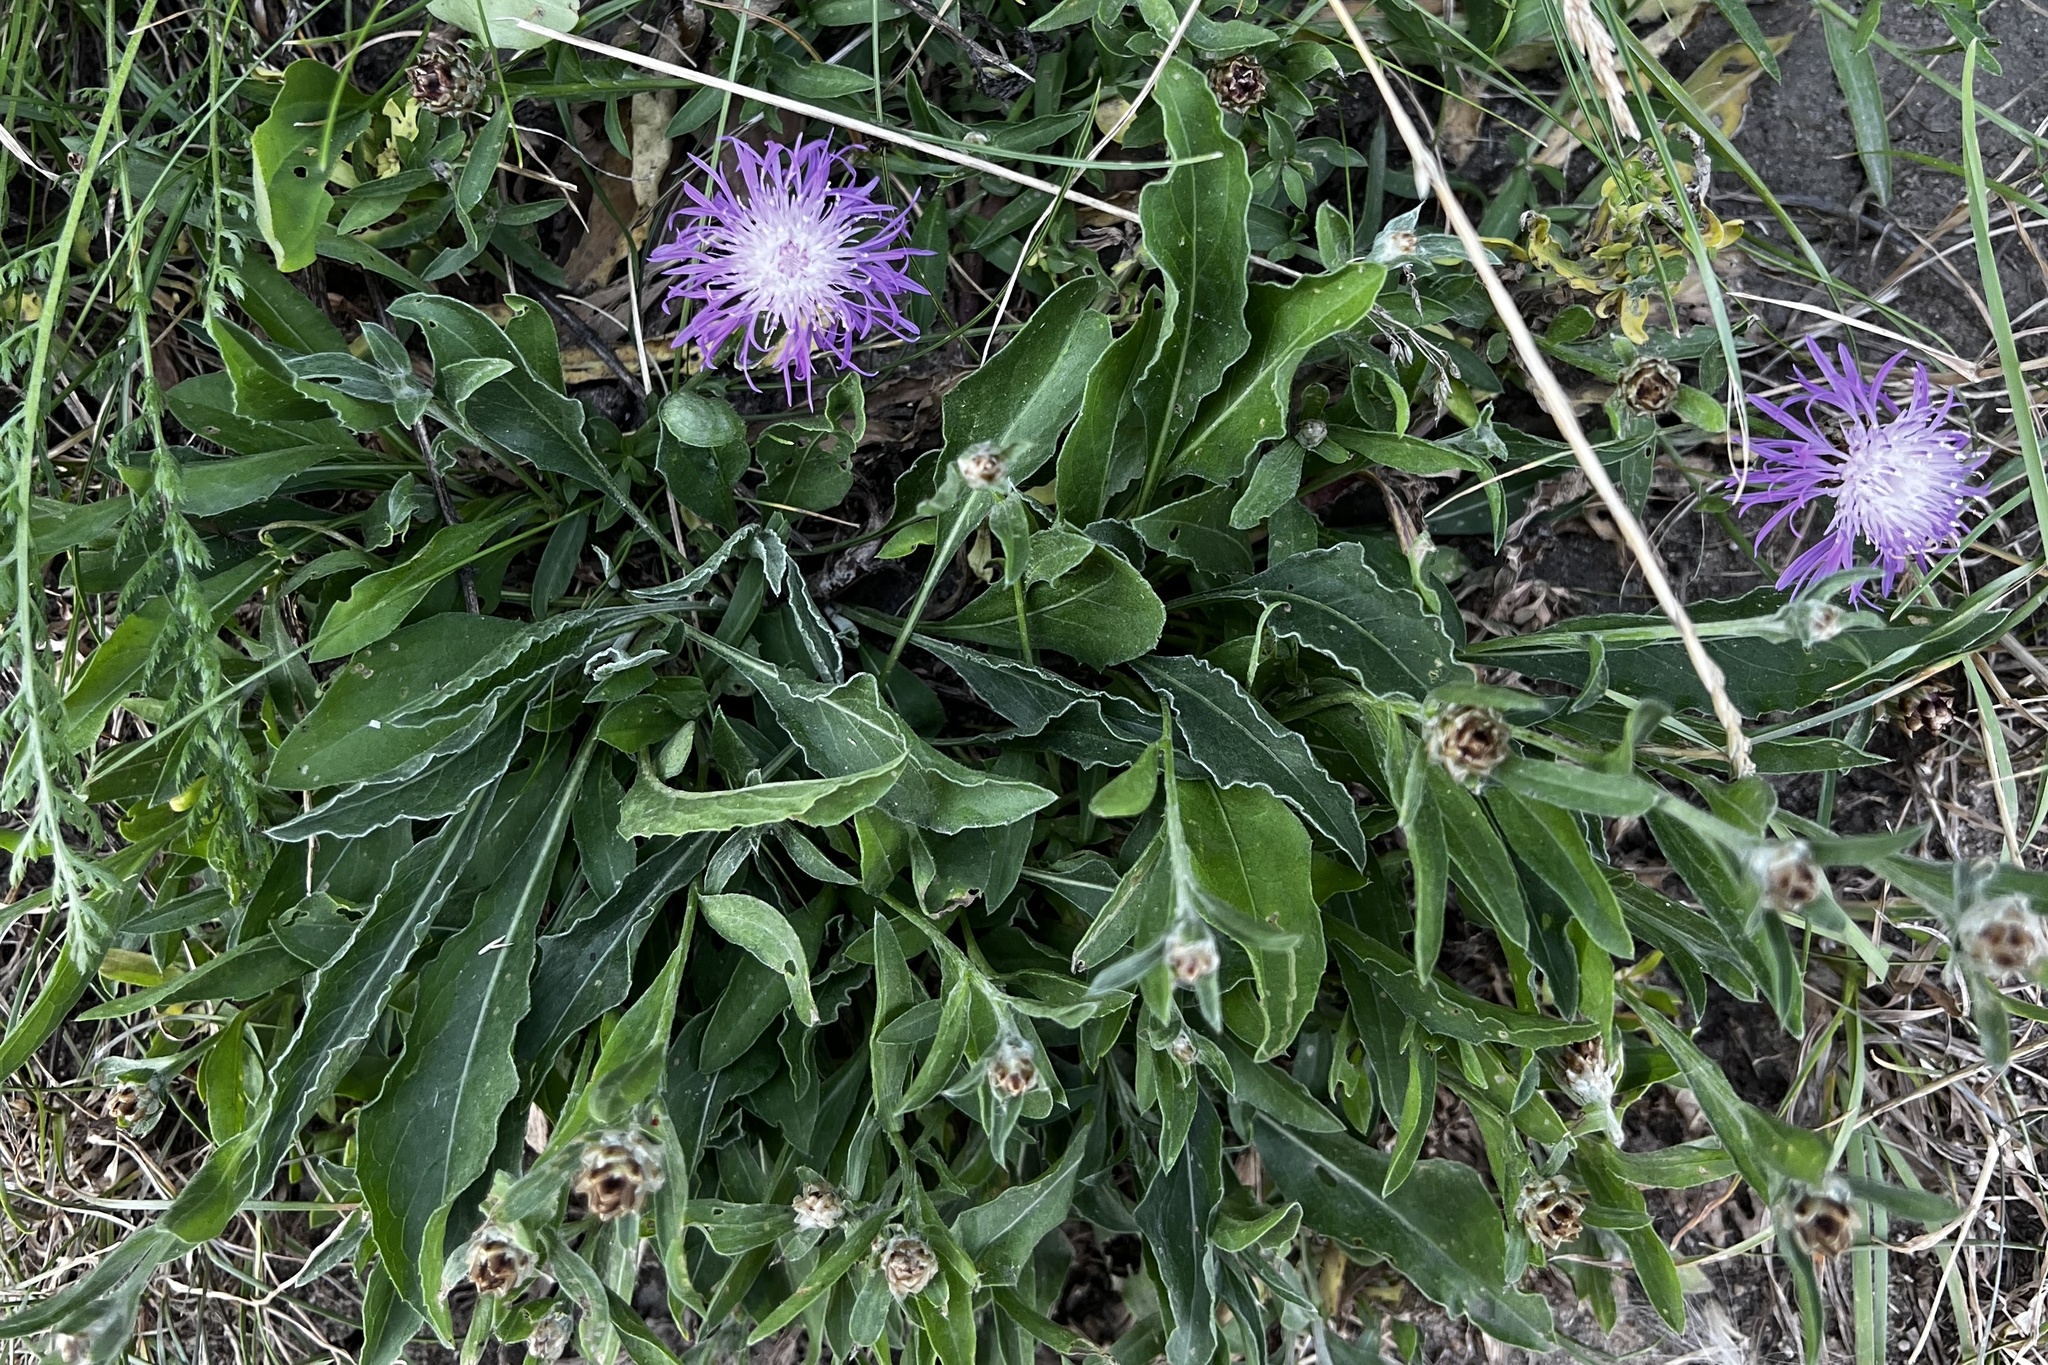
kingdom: Plantae
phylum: Tracheophyta
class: Magnoliopsida
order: Asterales
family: Asteraceae
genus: Centaurea
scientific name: Centaurea jacea
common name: Brown knapweed
